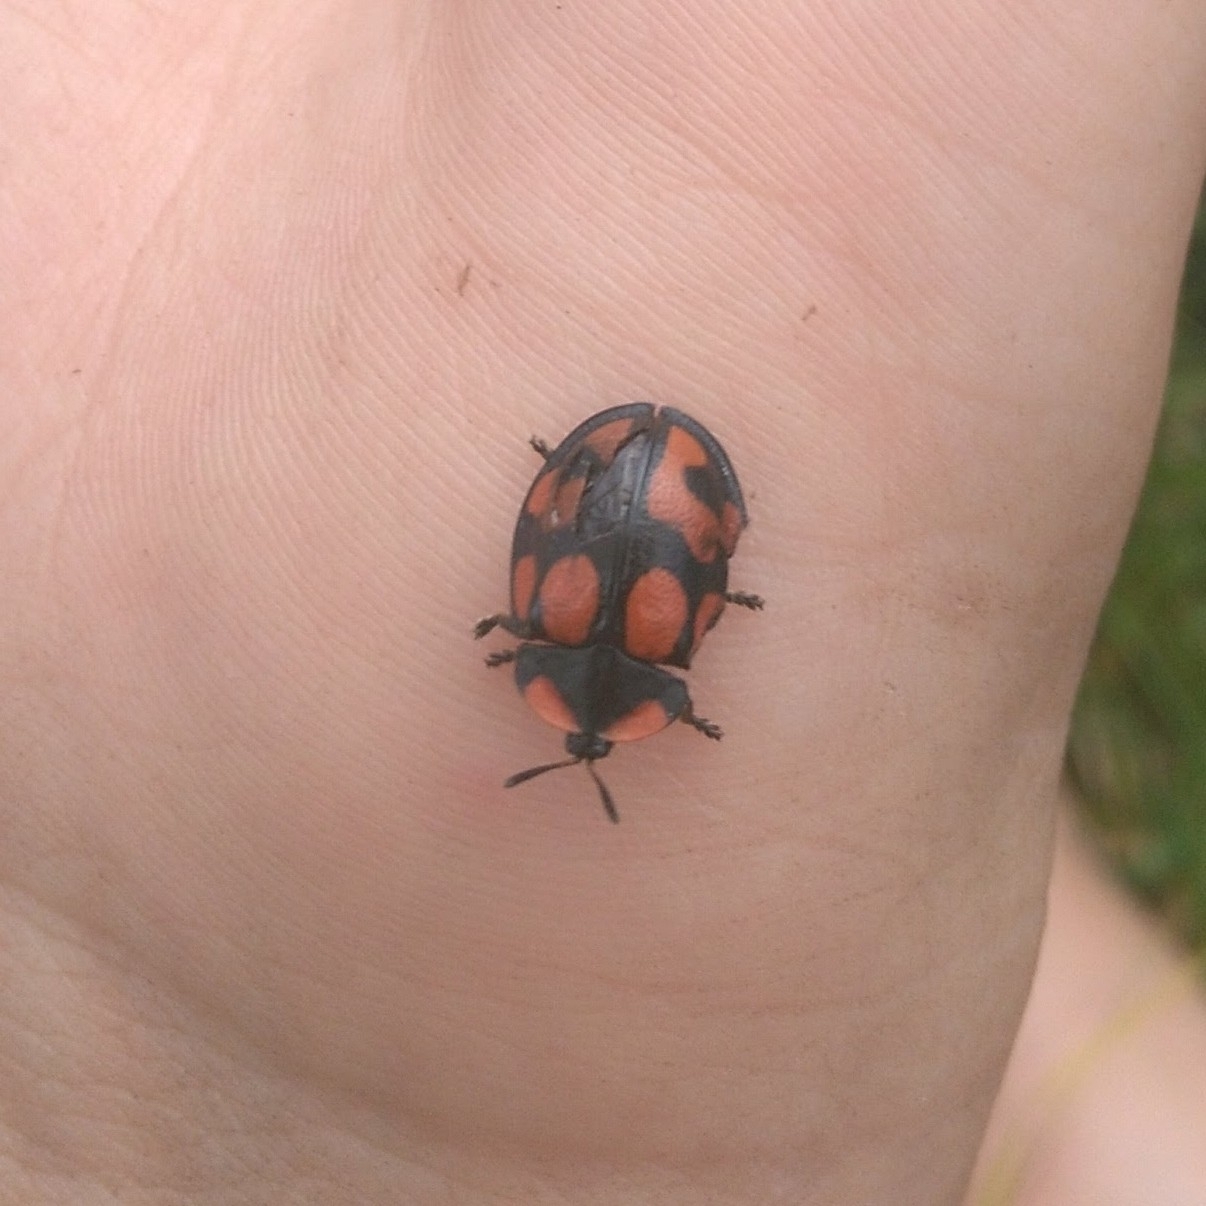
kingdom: Animalia
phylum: Arthropoda
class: Insecta
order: Coleoptera
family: Chrysomelidae
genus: Botanochara
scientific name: Botanochara angulata
